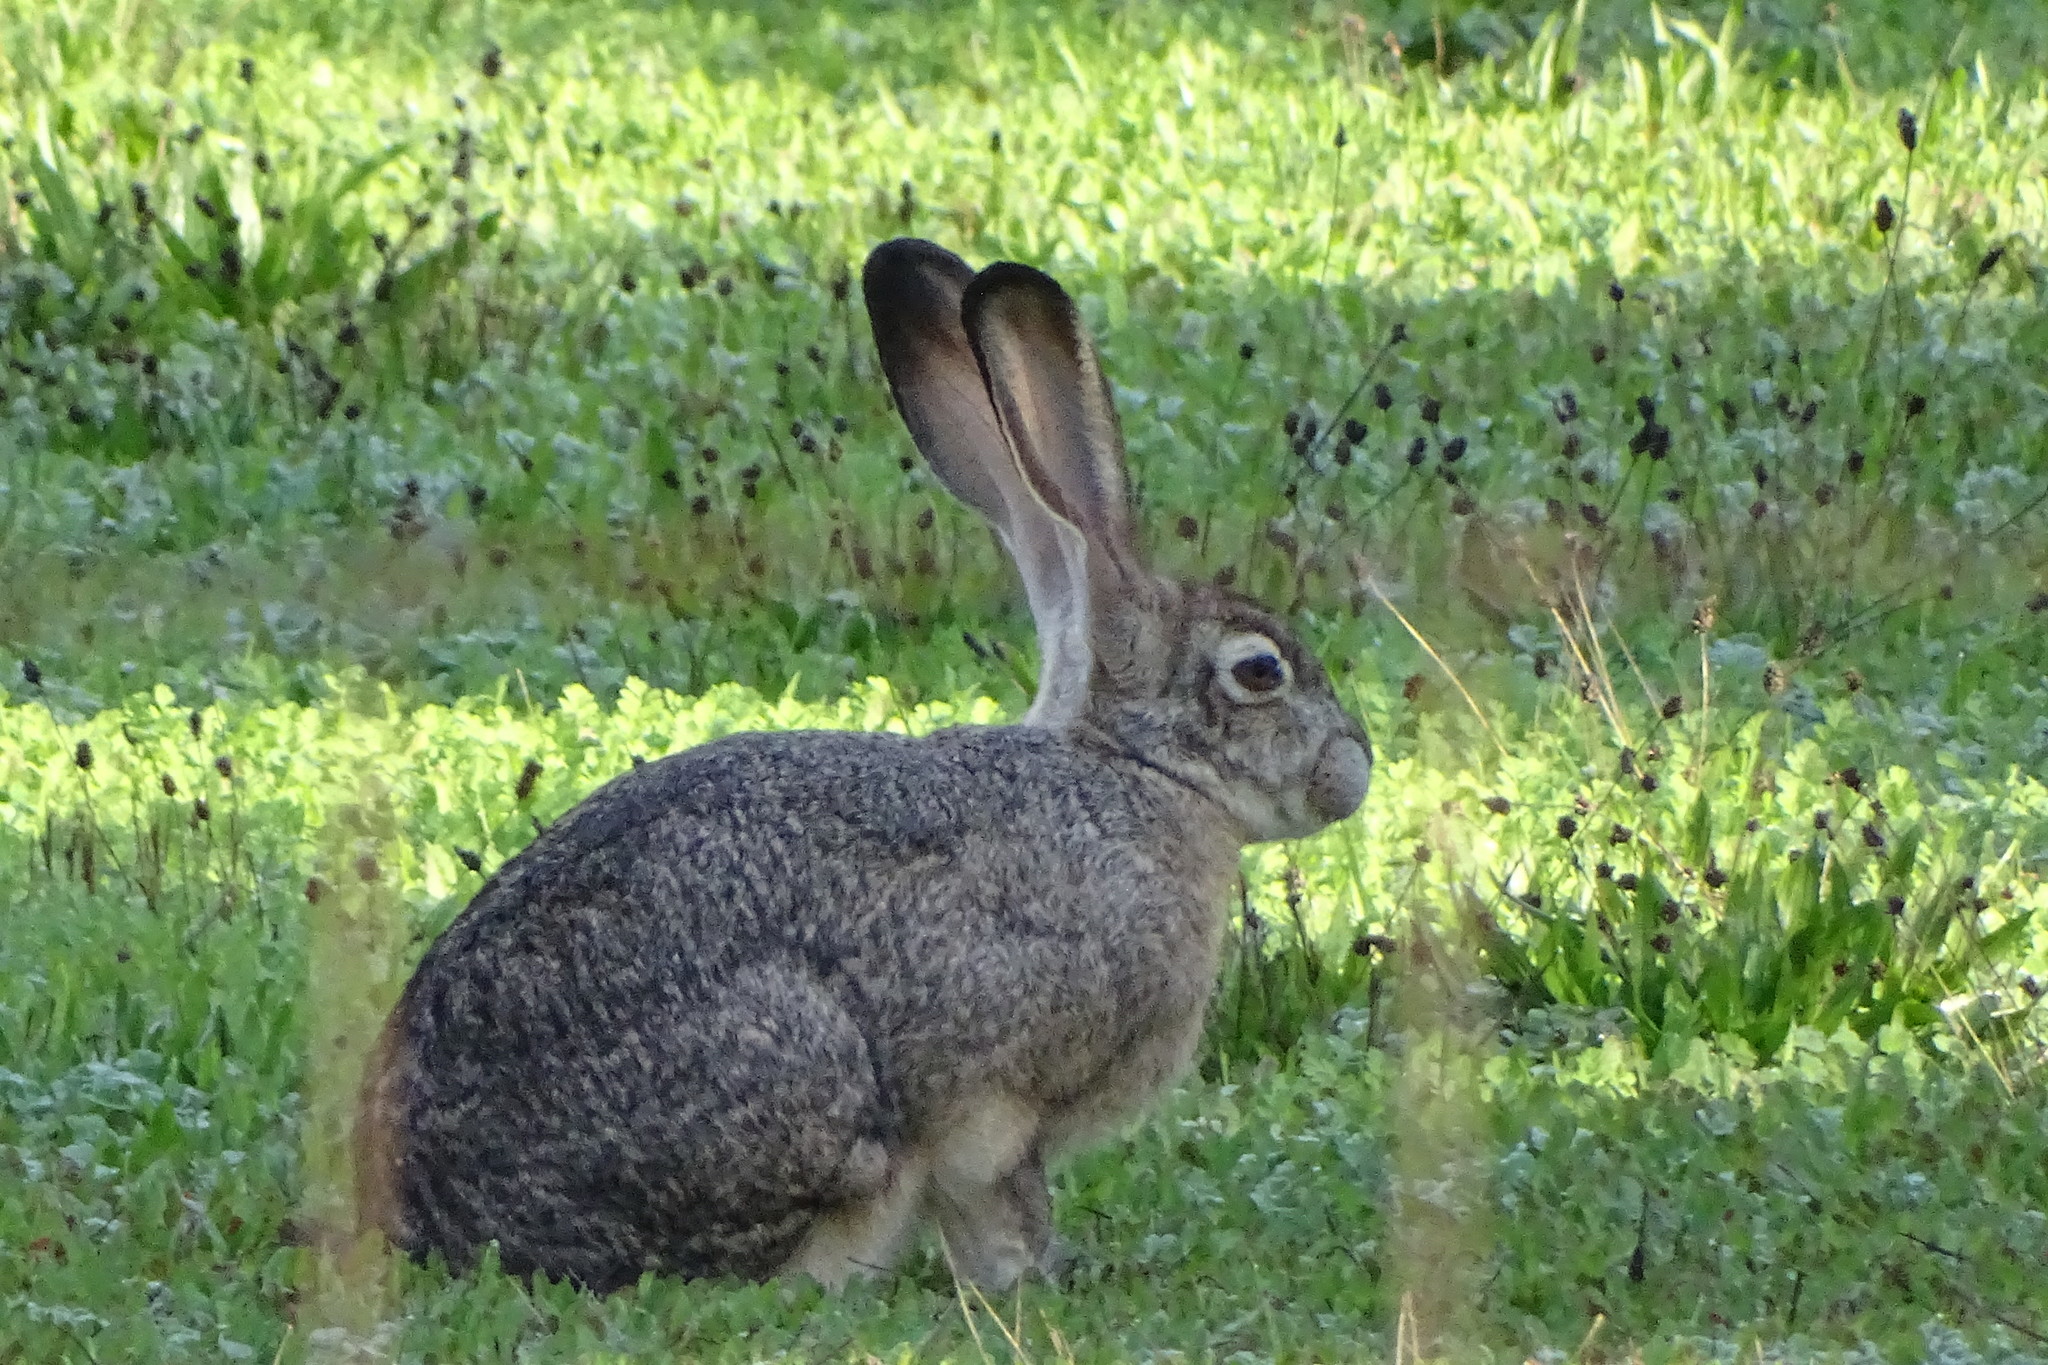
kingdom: Animalia
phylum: Chordata
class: Mammalia
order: Lagomorpha
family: Leporidae
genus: Lepus
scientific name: Lepus californicus
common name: Black-tailed jackrabbit
